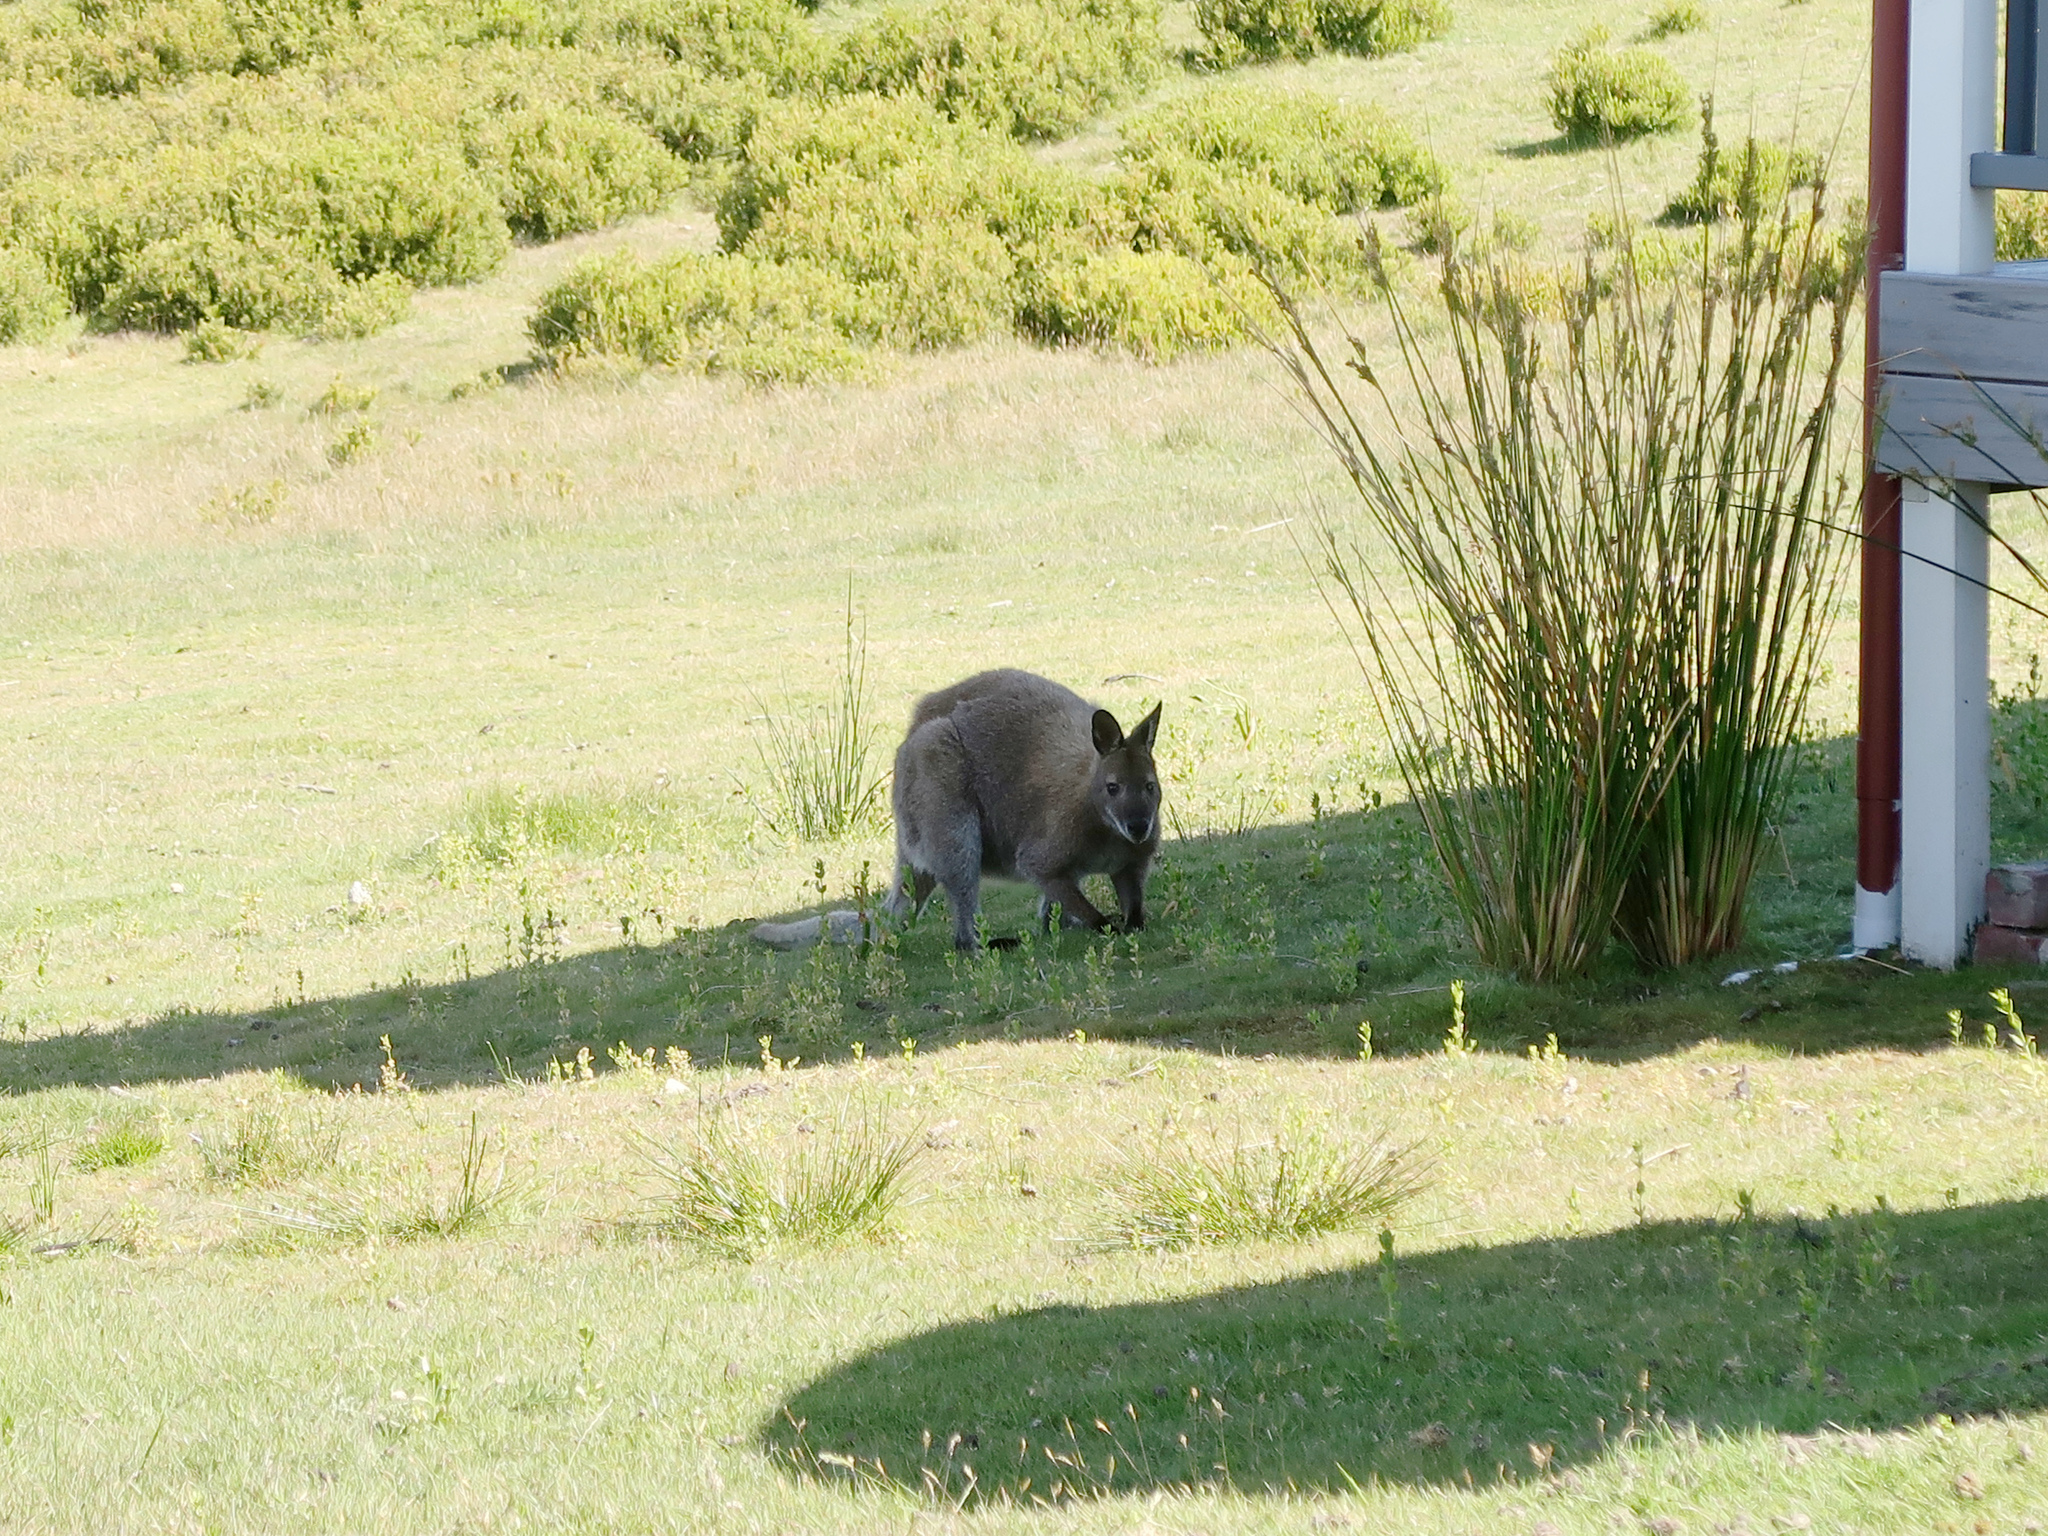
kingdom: Animalia
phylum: Chordata
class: Mammalia
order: Diprotodontia
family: Macropodidae
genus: Notamacropus
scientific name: Notamacropus rufogriseus
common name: Red-necked wallaby
